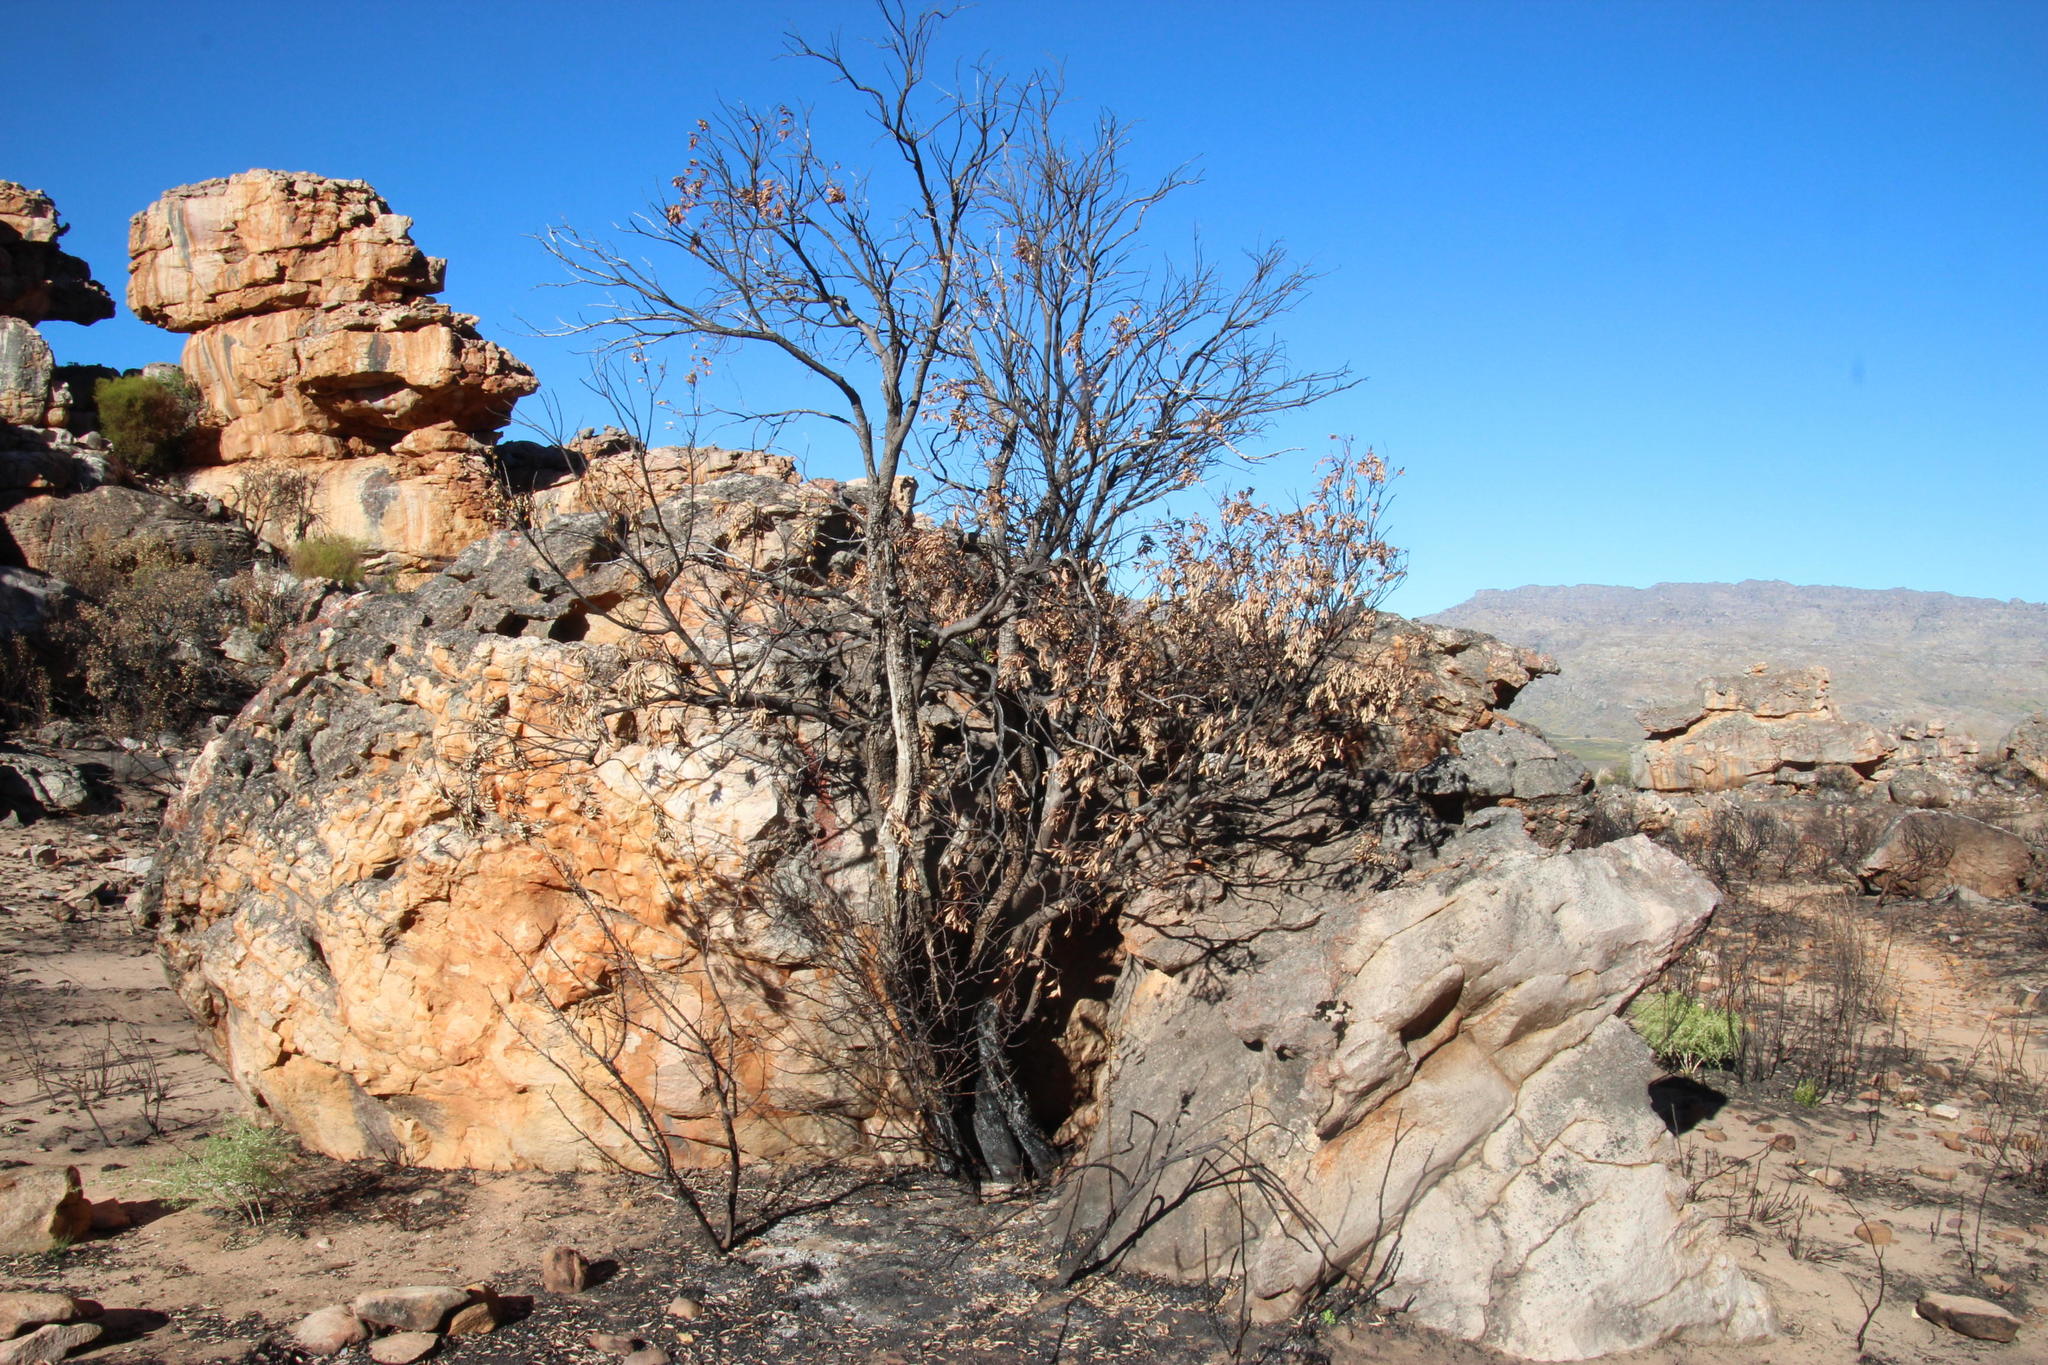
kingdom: Plantae
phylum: Tracheophyta
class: Magnoliopsida
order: Celastrales
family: Celastraceae
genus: Gymnosporia
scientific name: Gymnosporia laurina
